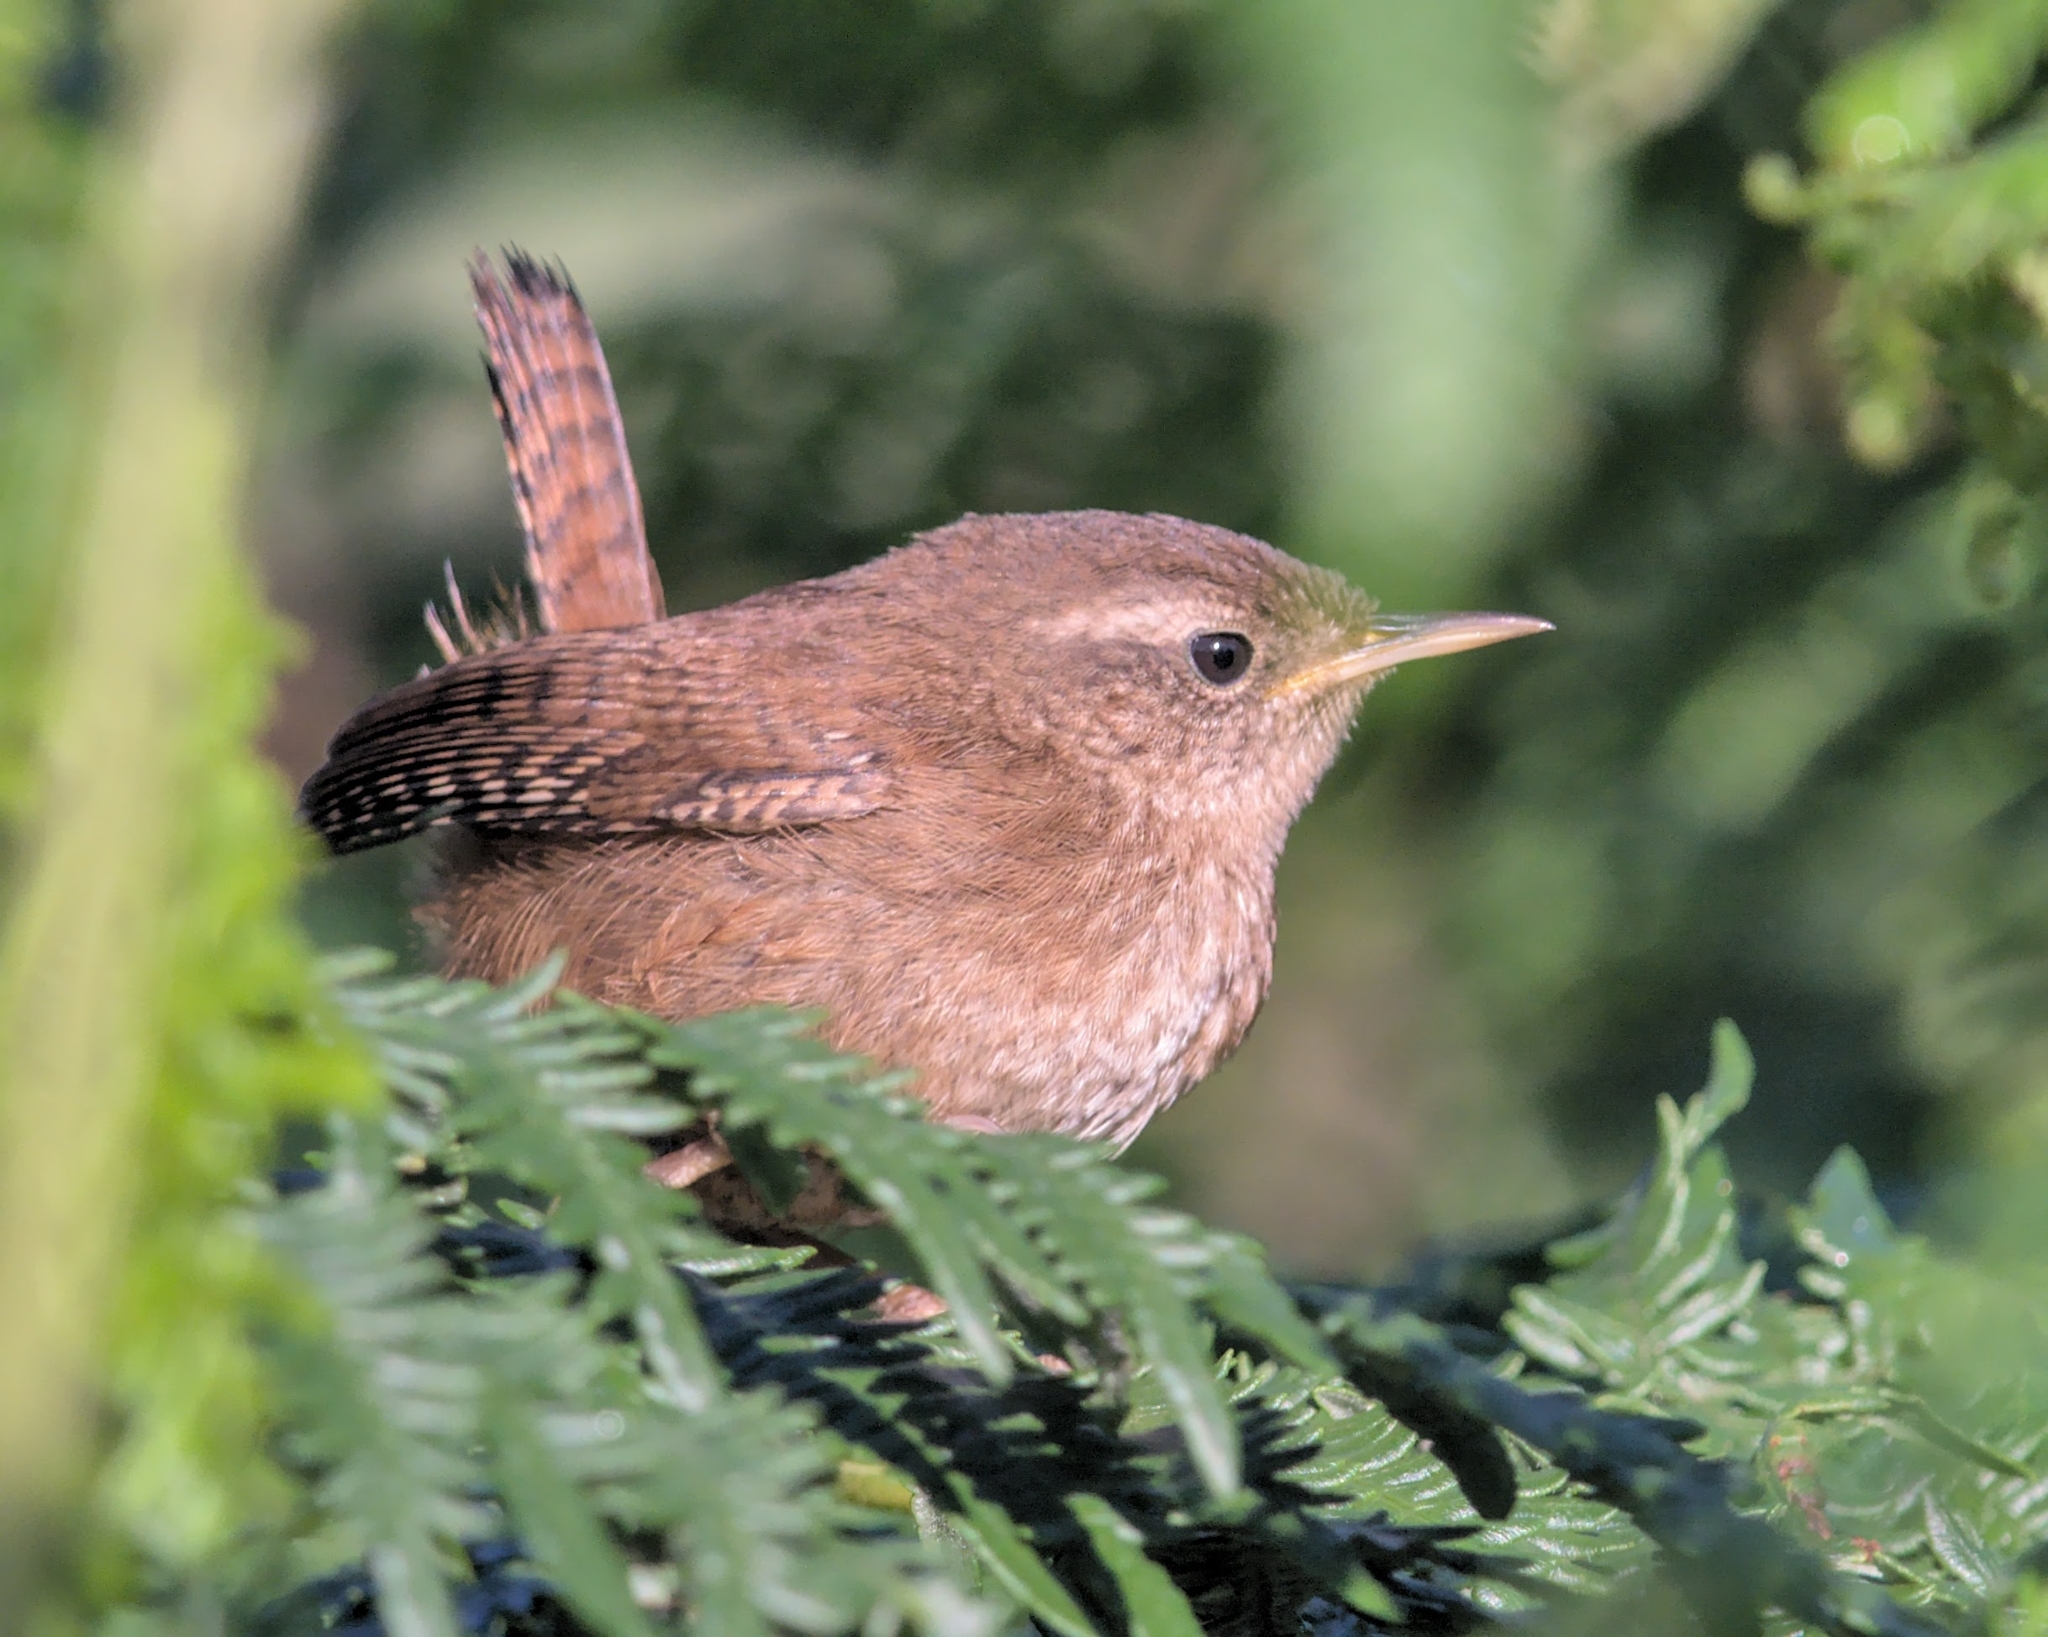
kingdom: Animalia
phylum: Chordata
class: Aves
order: Passeriformes
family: Troglodytidae
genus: Troglodytes
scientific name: Troglodytes troglodytes
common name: Eurasian wren
